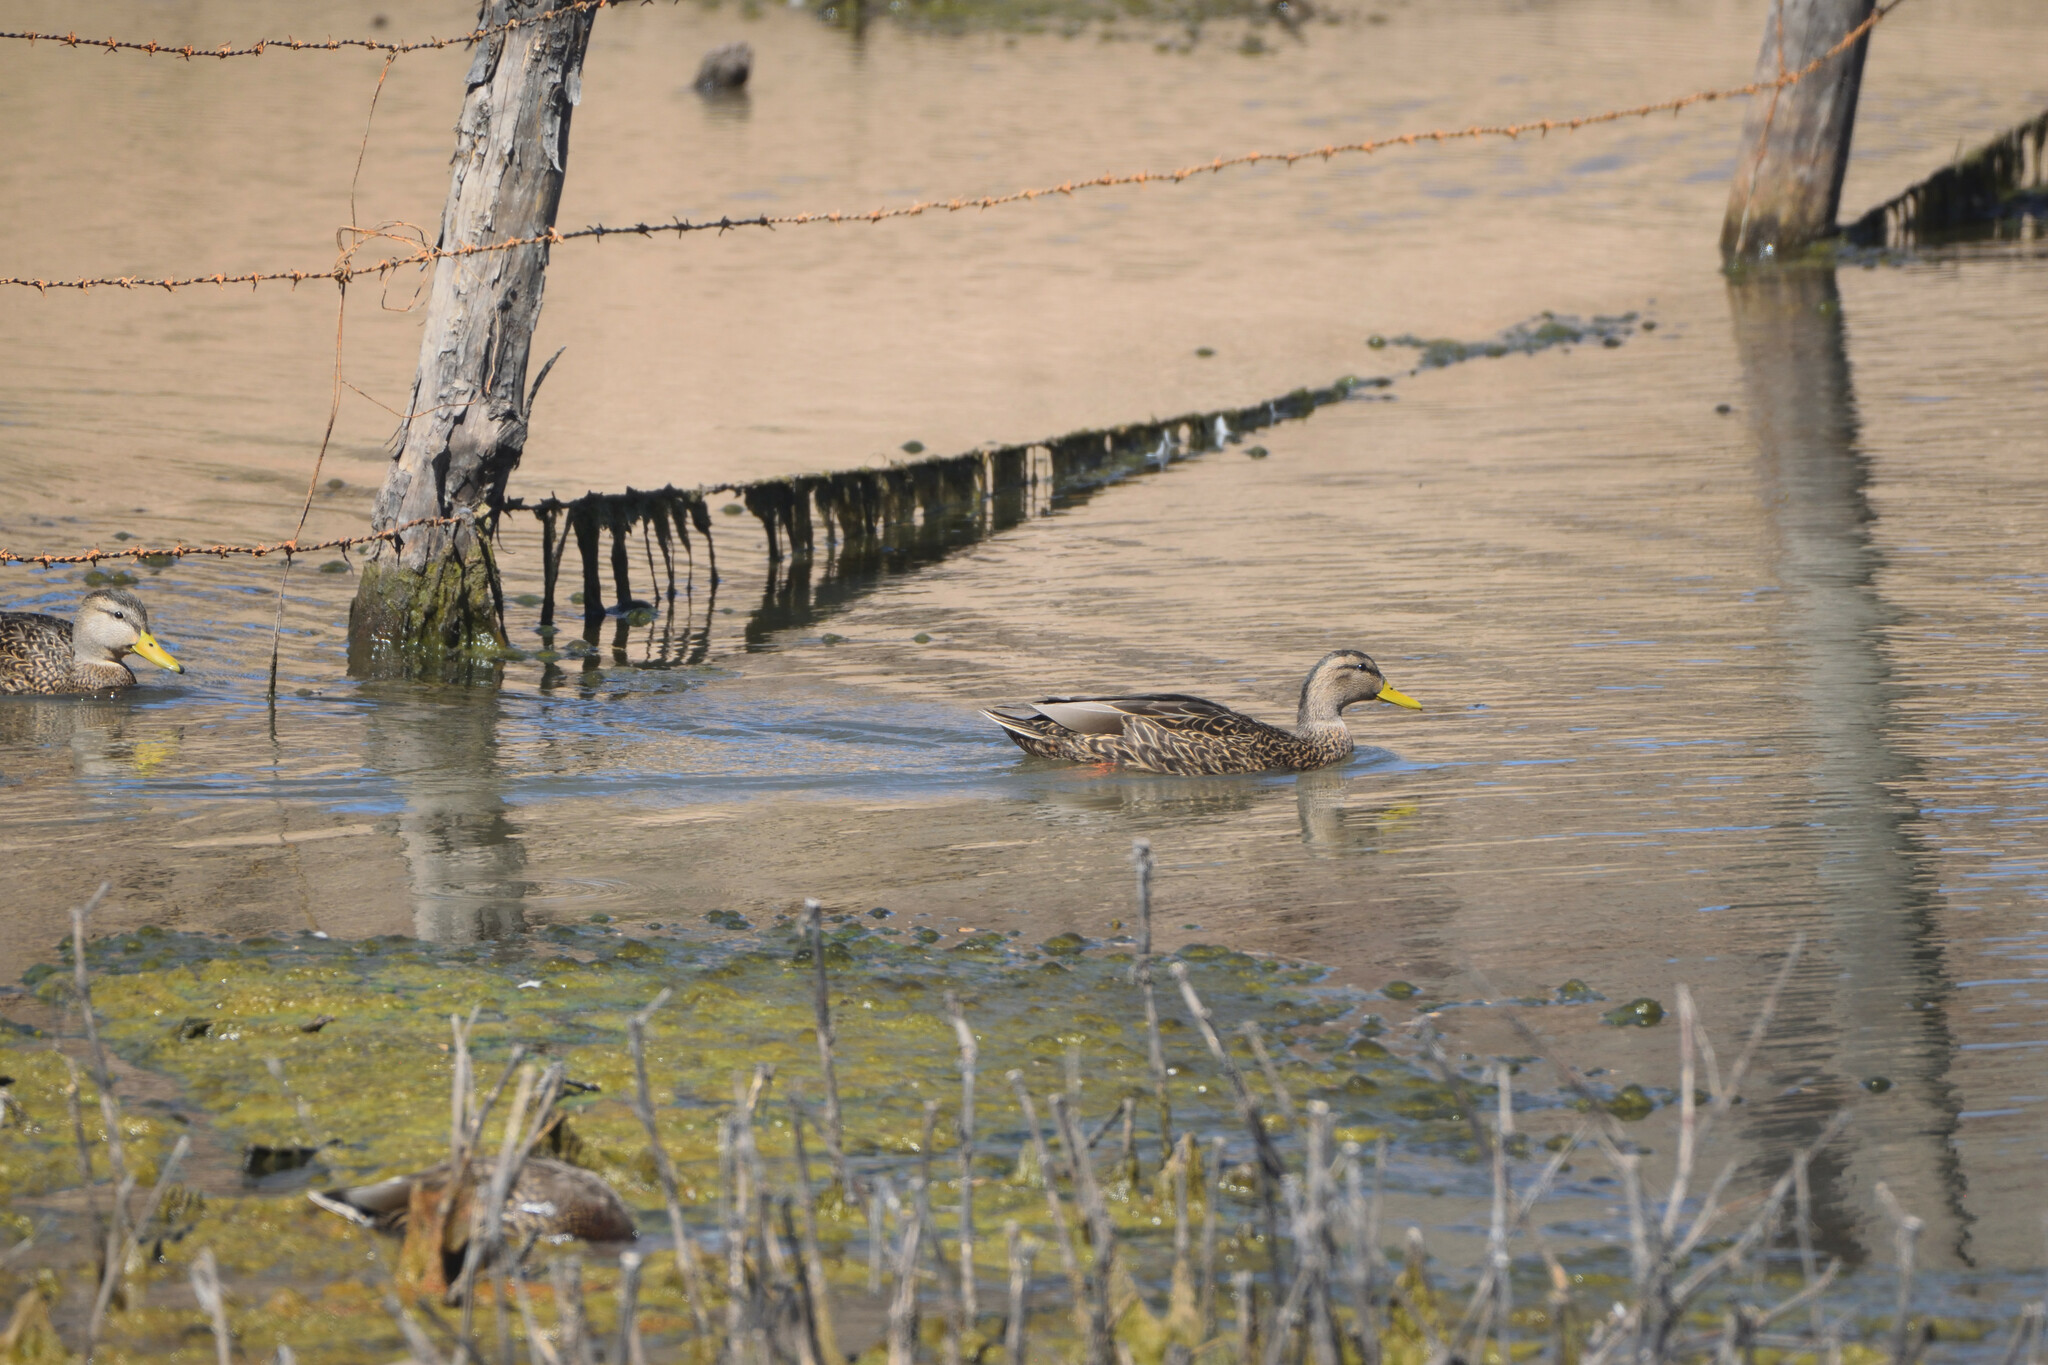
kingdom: Animalia
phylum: Chordata
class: Aves
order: Anseriformes
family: Anatidae
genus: Anas
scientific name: Anas diazi
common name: Mexican duck
